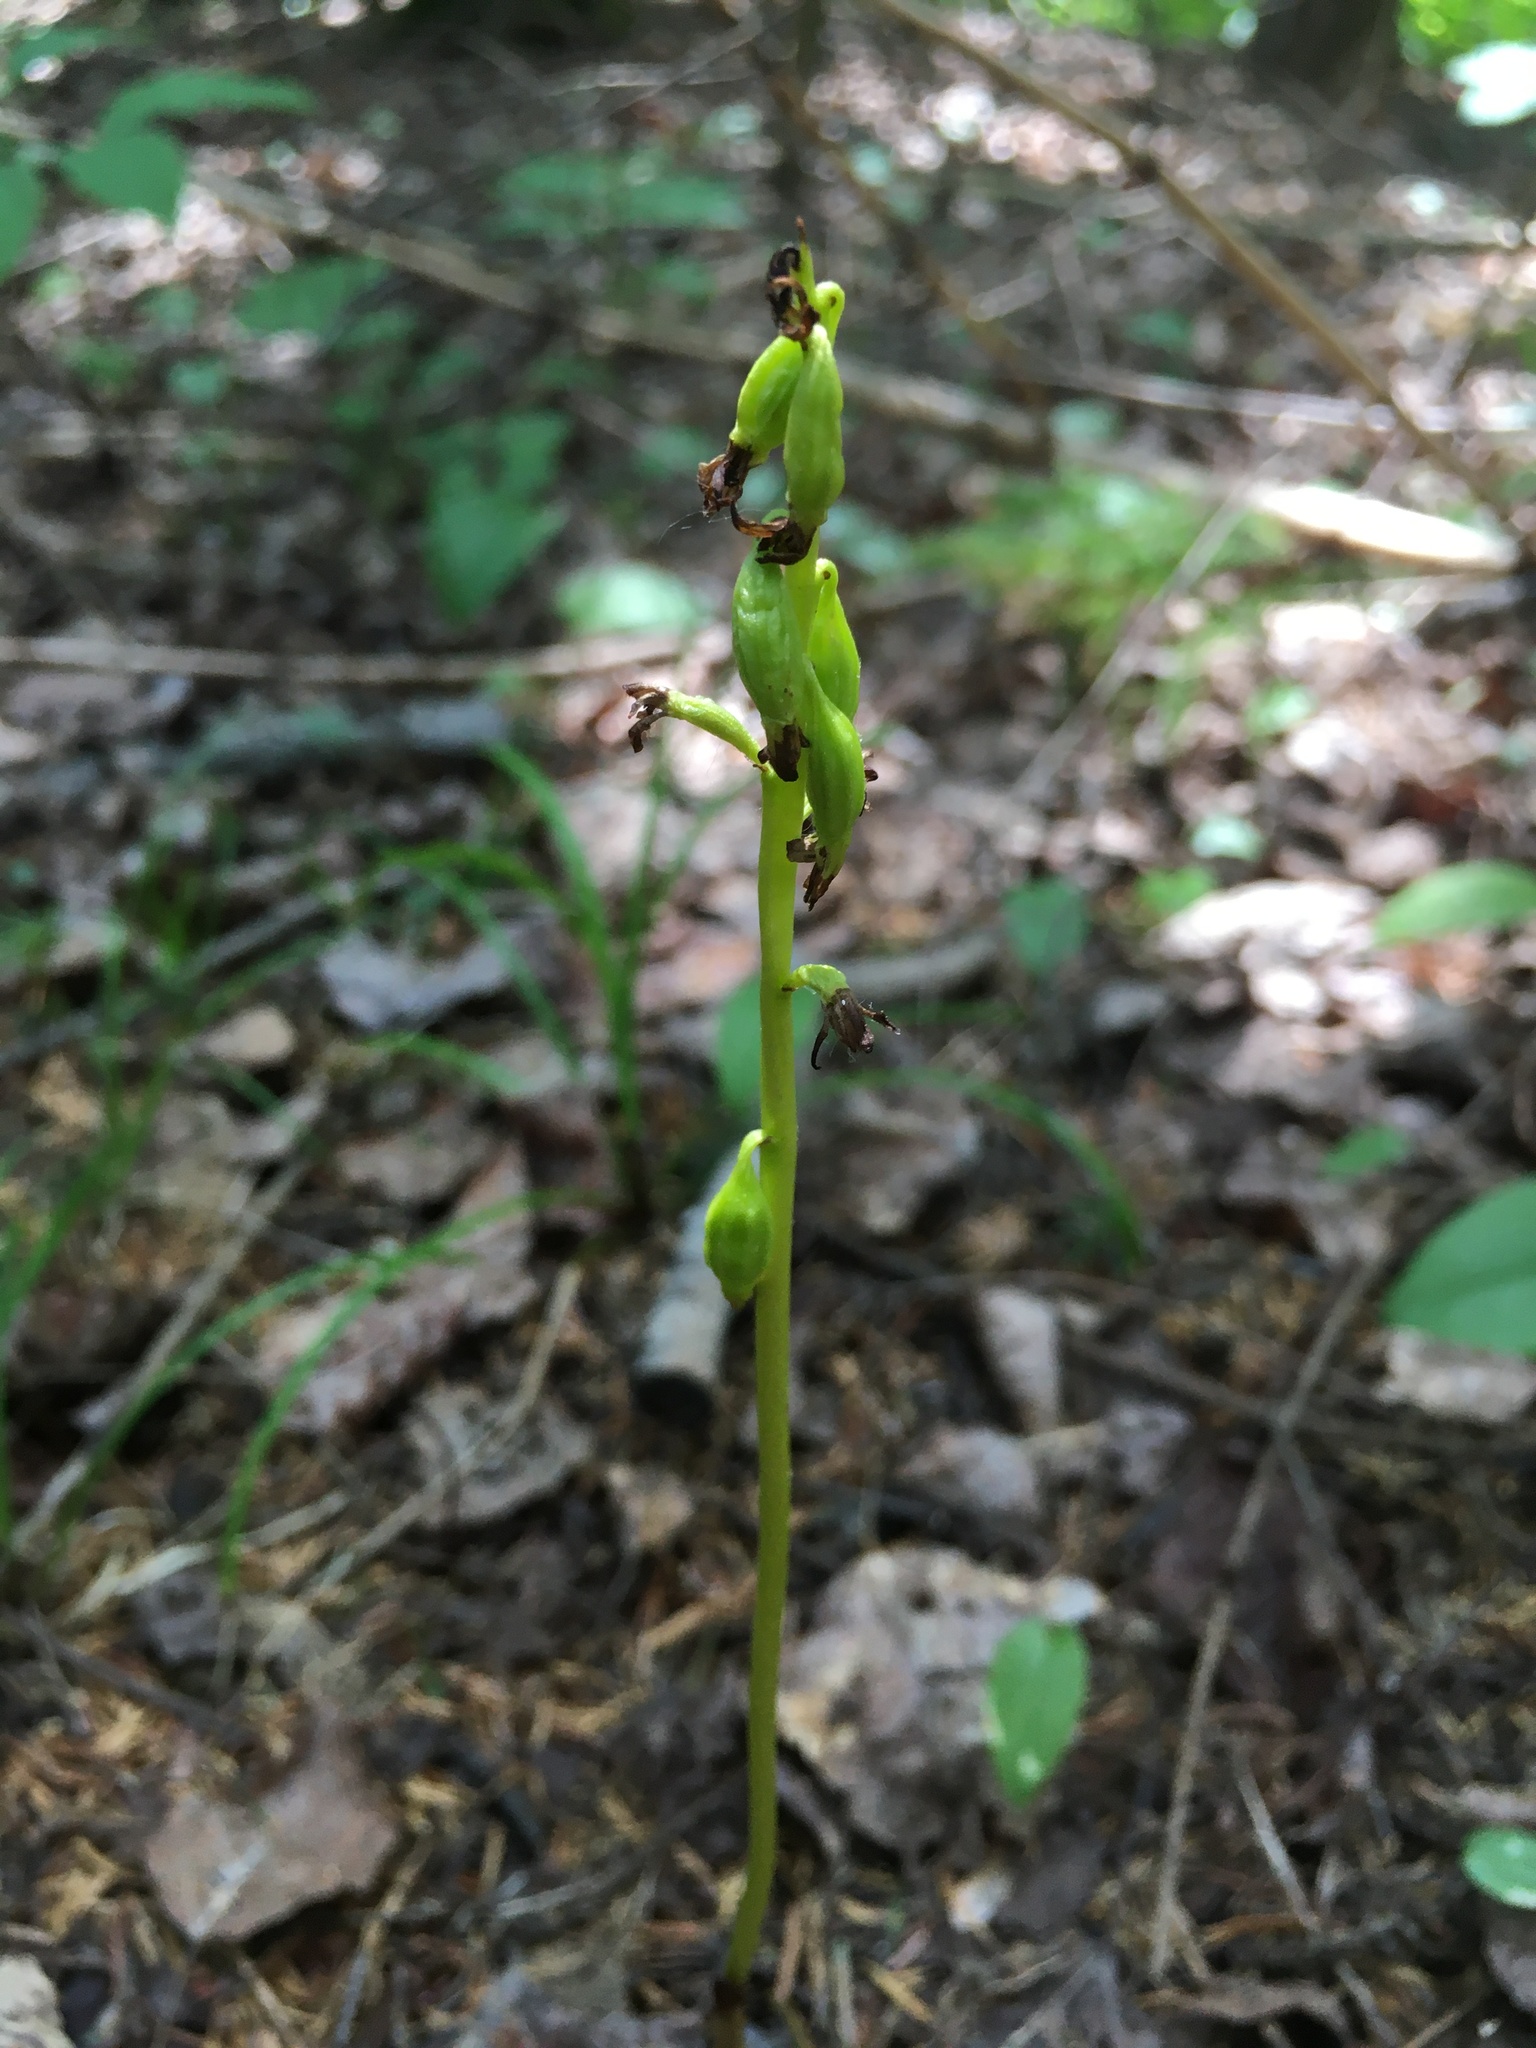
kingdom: Plantae
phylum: Tracheophyta
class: Liliopsida
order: Asparagales
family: Orchidaceae
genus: Corallorhiza
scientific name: Corallorhiza trifida
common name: Yellow coralroot
